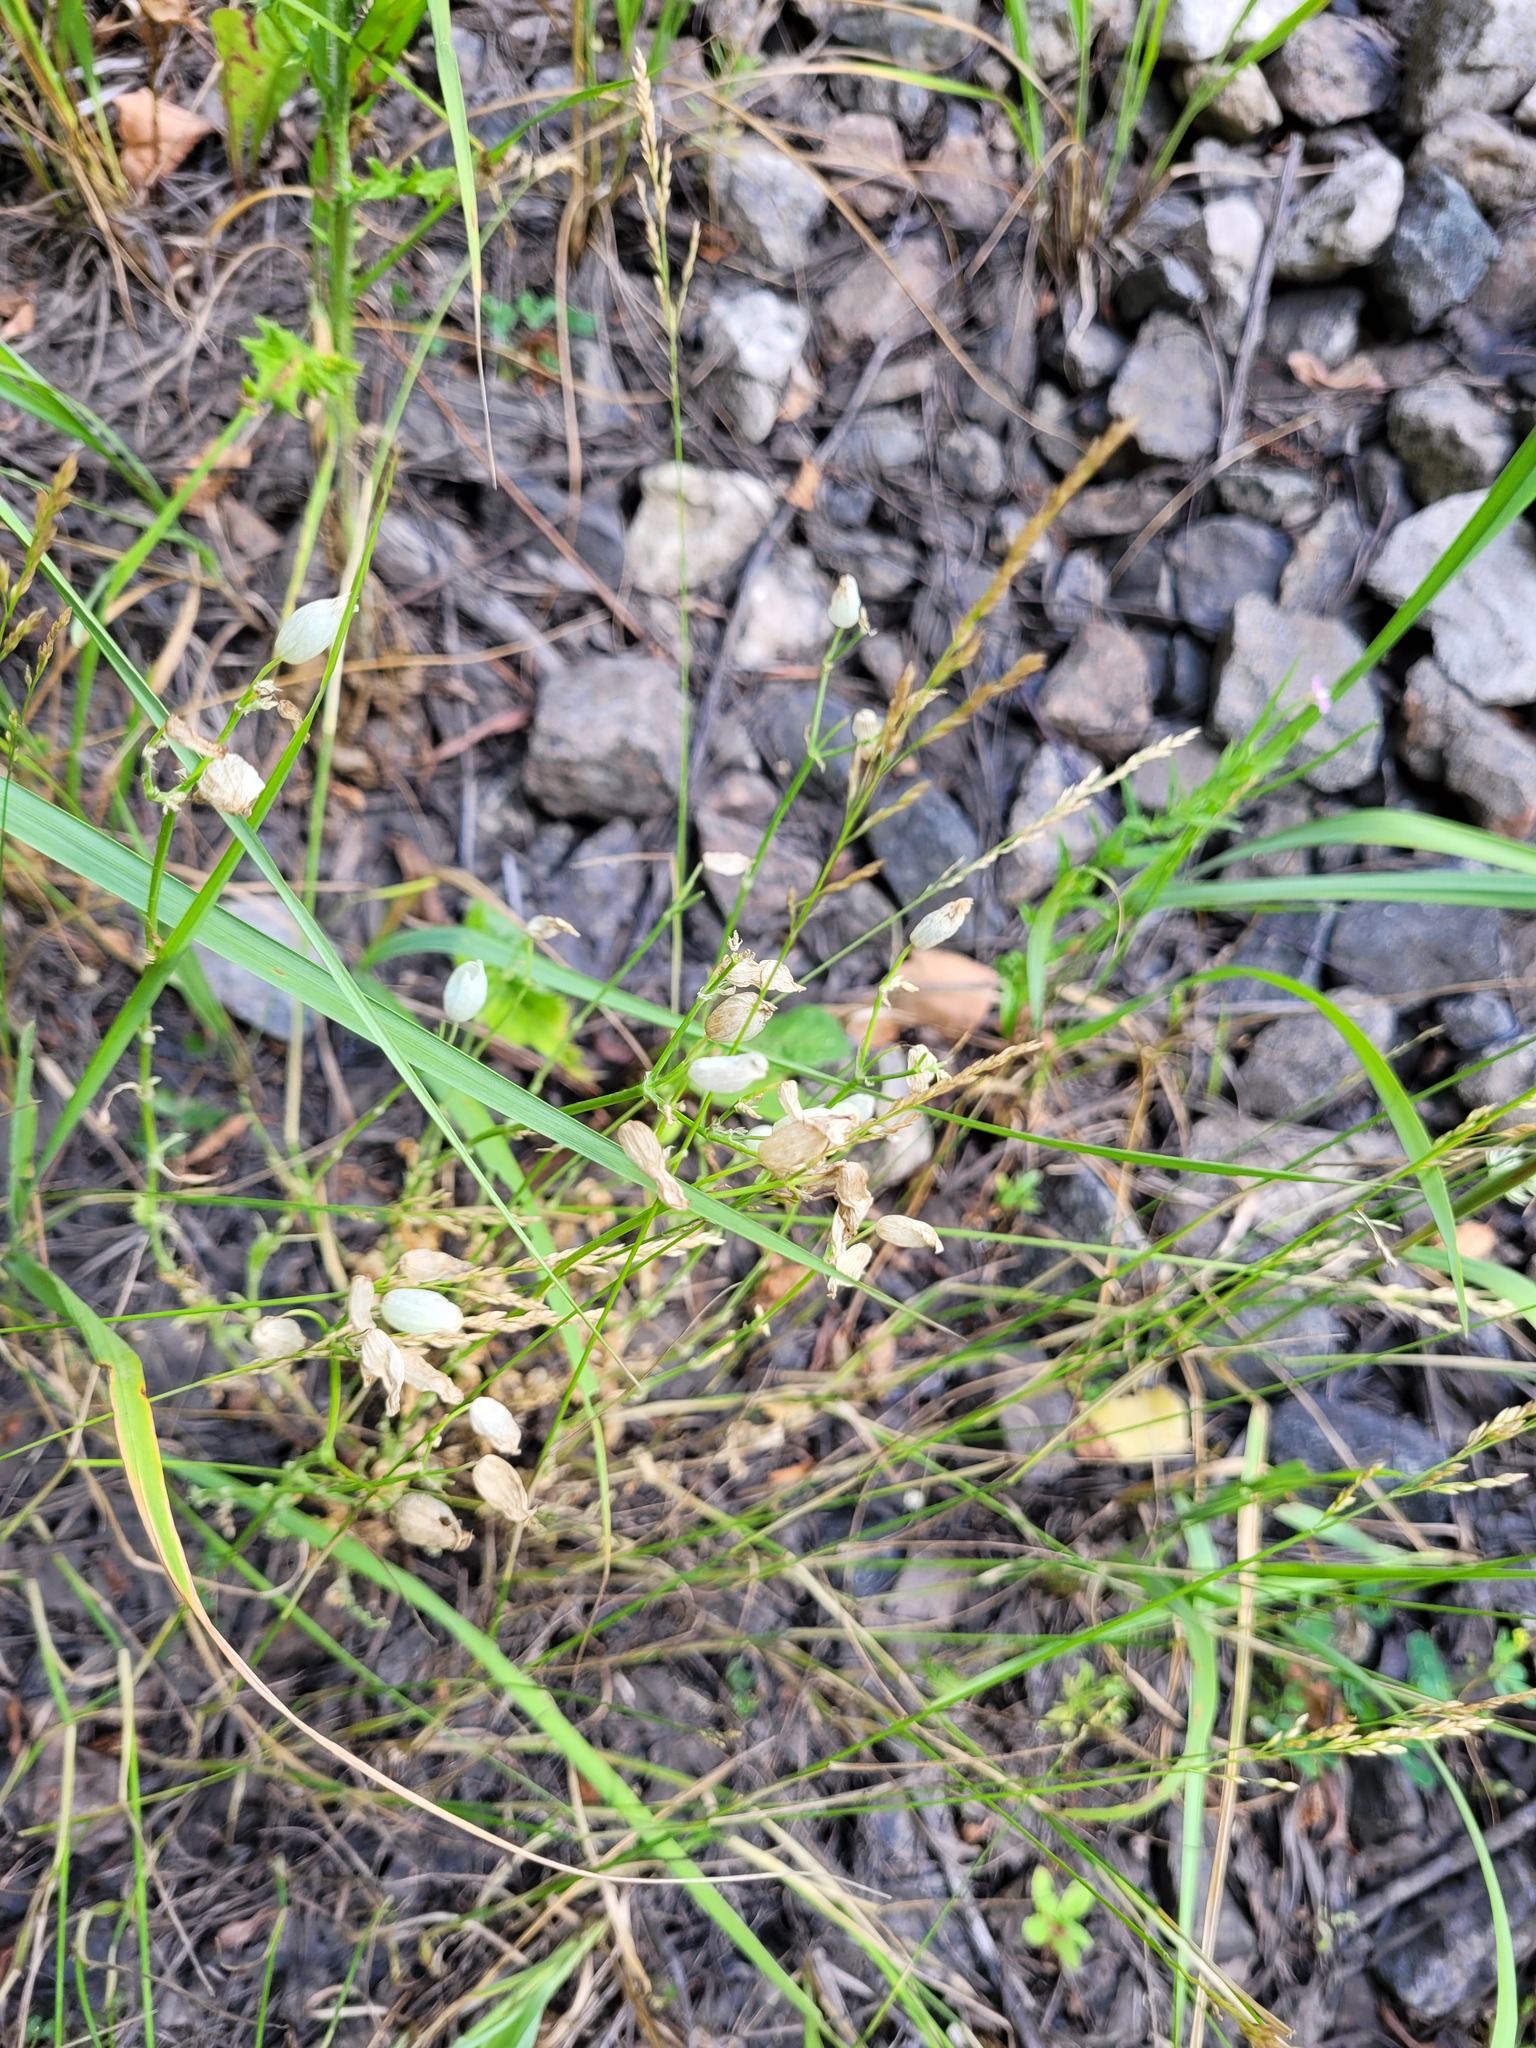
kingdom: Plantae
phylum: Tracheophyta
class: Magnoliopsida
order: Caryophyllales
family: Caryophyllaceae
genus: Silene
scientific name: Silene vulgaris
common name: Bladder campion
